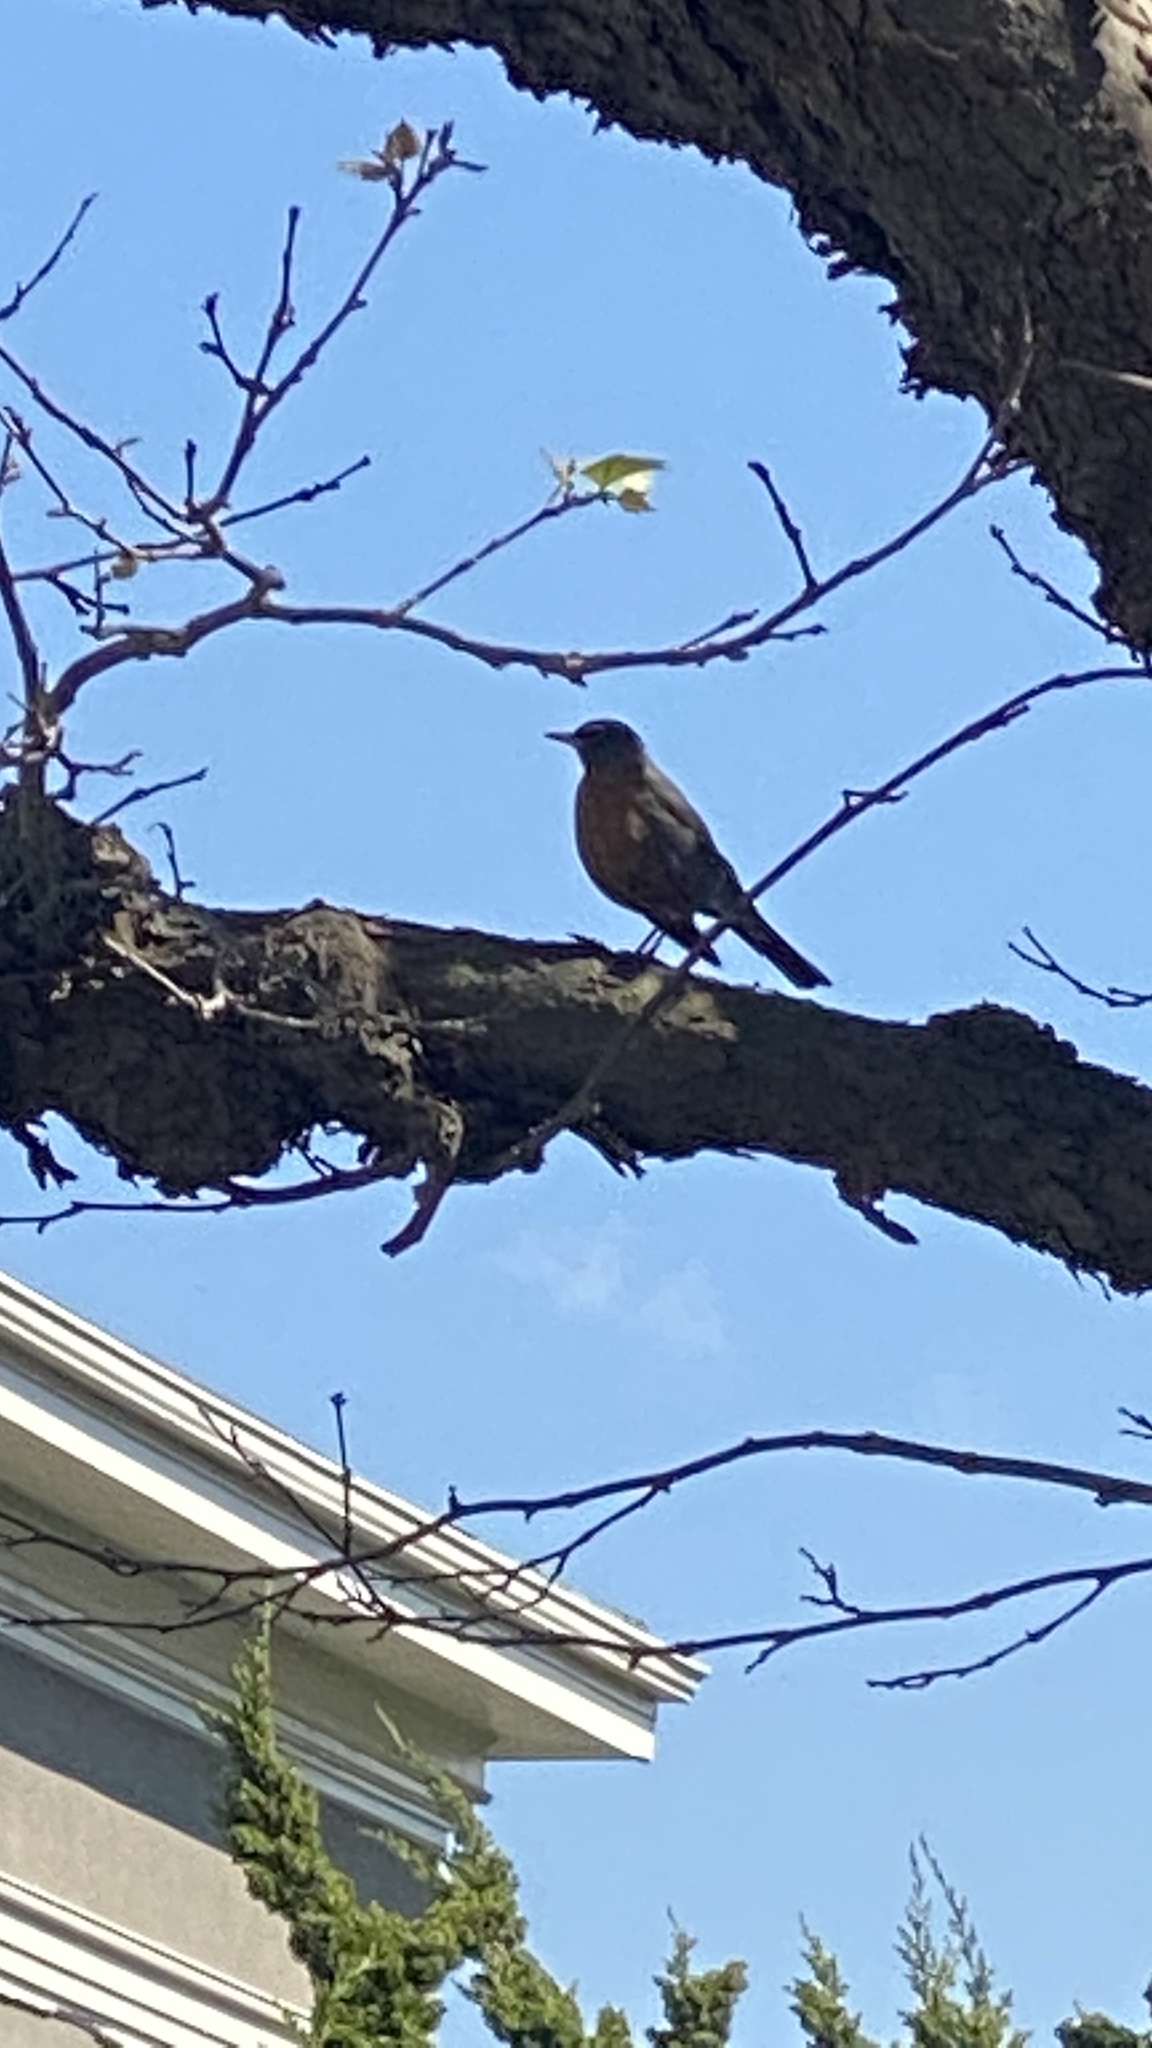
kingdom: Animalia
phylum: Chordata
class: Aves
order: Passeriformes
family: Turdidae
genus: Turdus
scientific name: Turdus migratorius
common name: American robin
